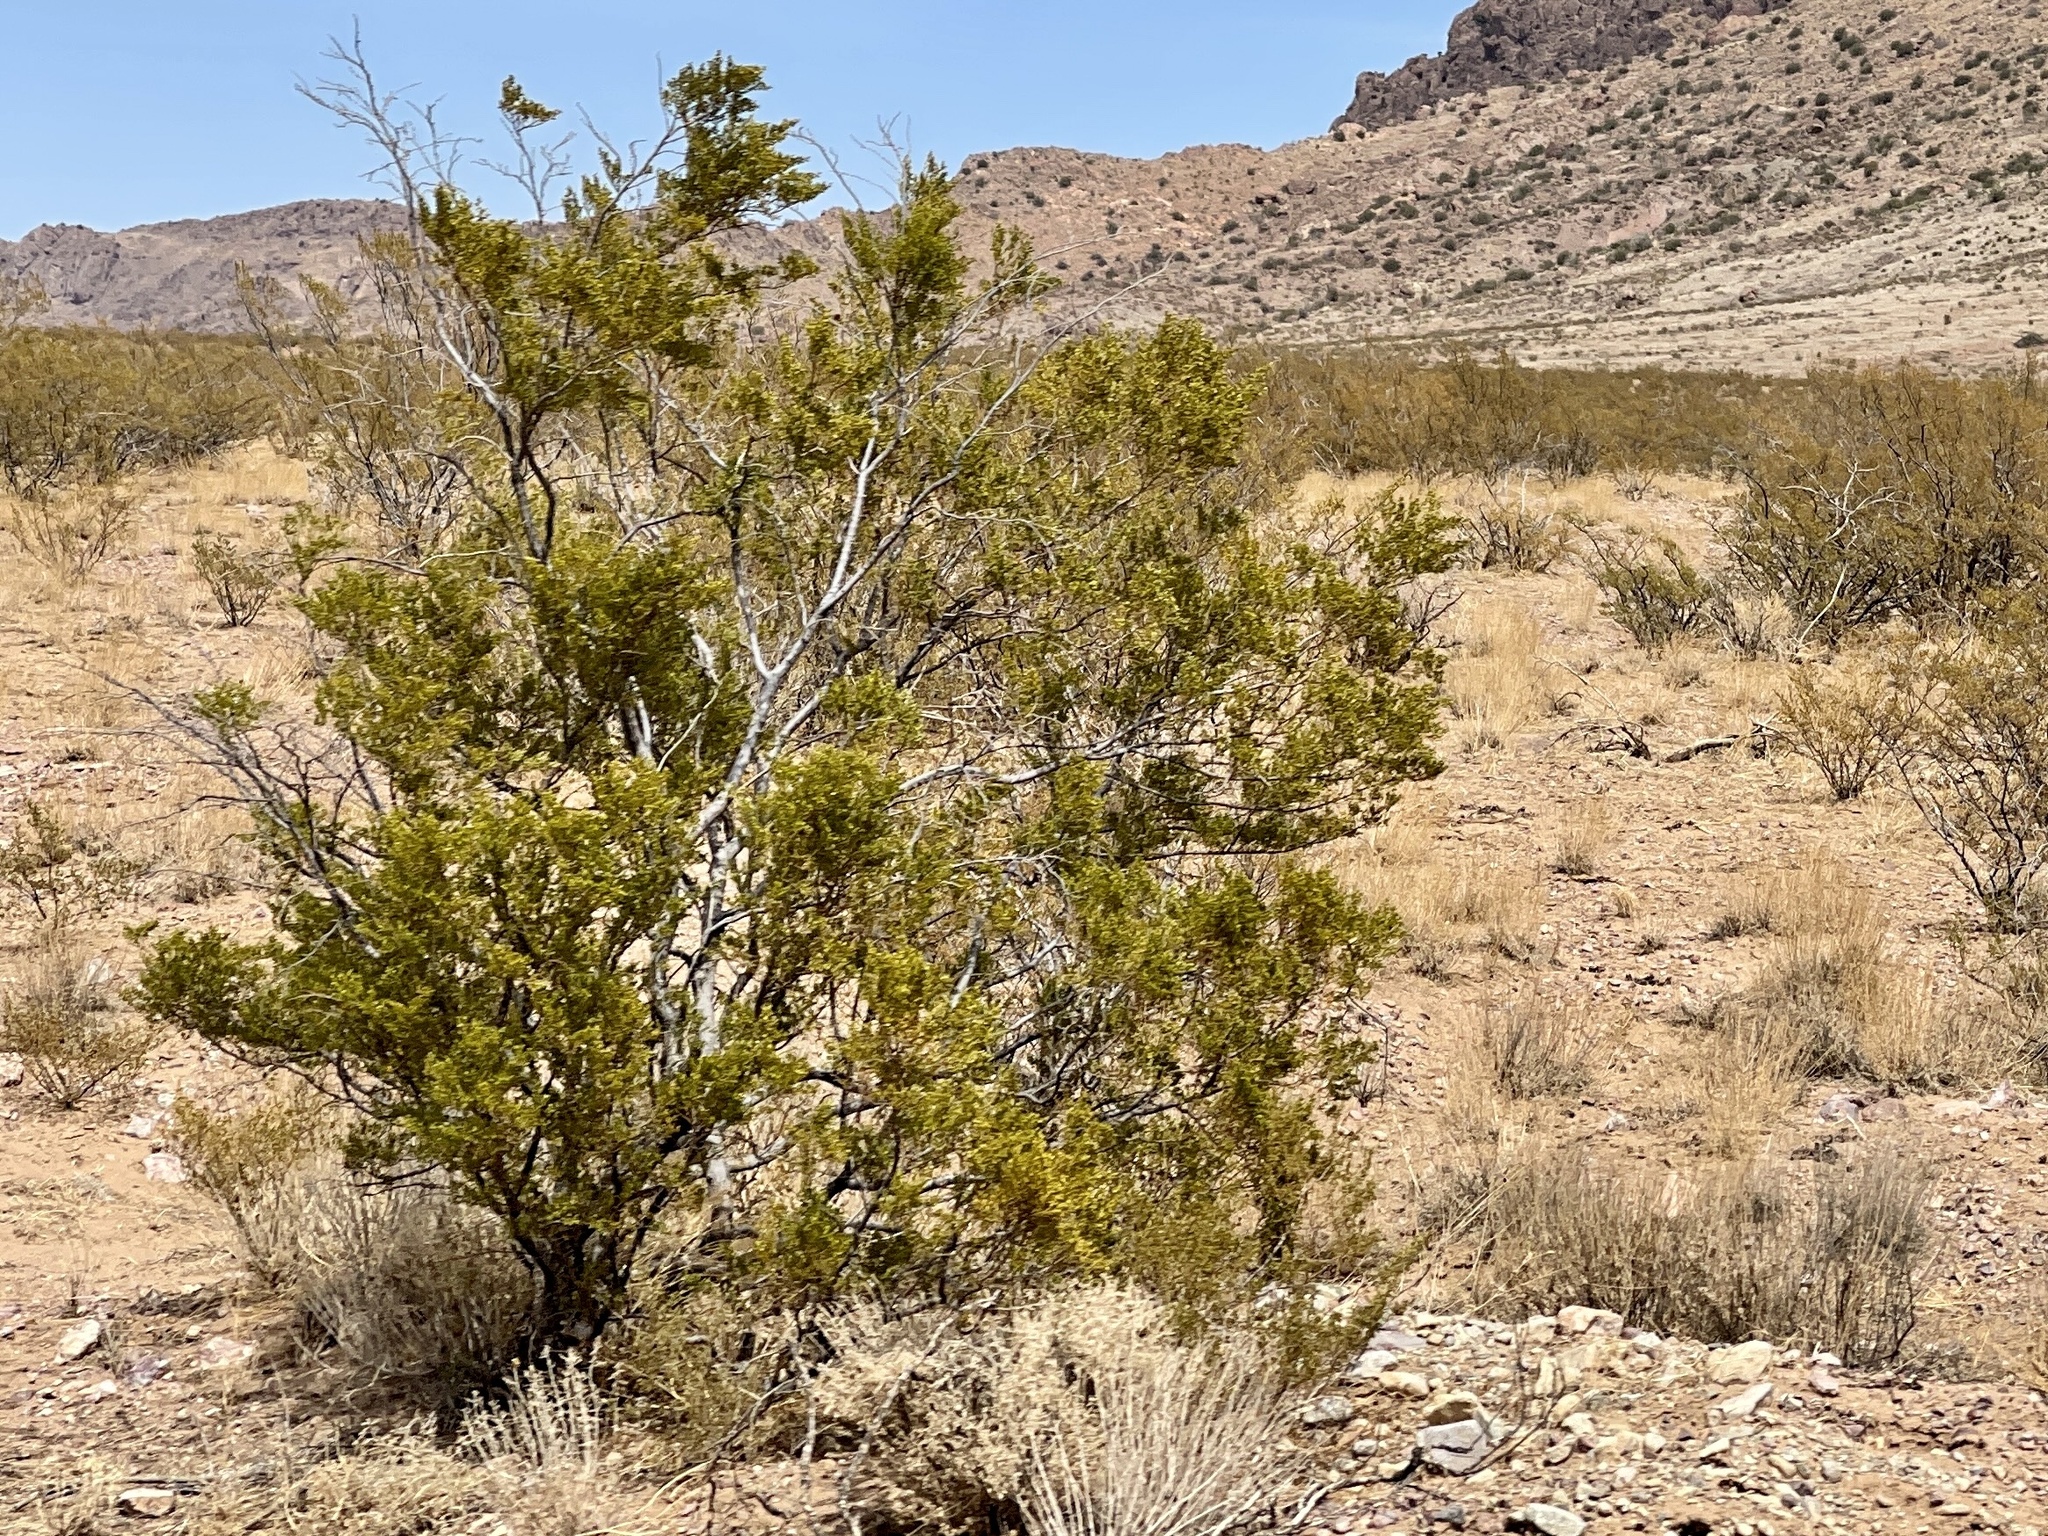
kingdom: Plantae
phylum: Tracheophyta
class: Magnoliopsida
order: Zygophyllales
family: Zygophyllaceae
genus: Larrea
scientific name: Larrea tridentata
